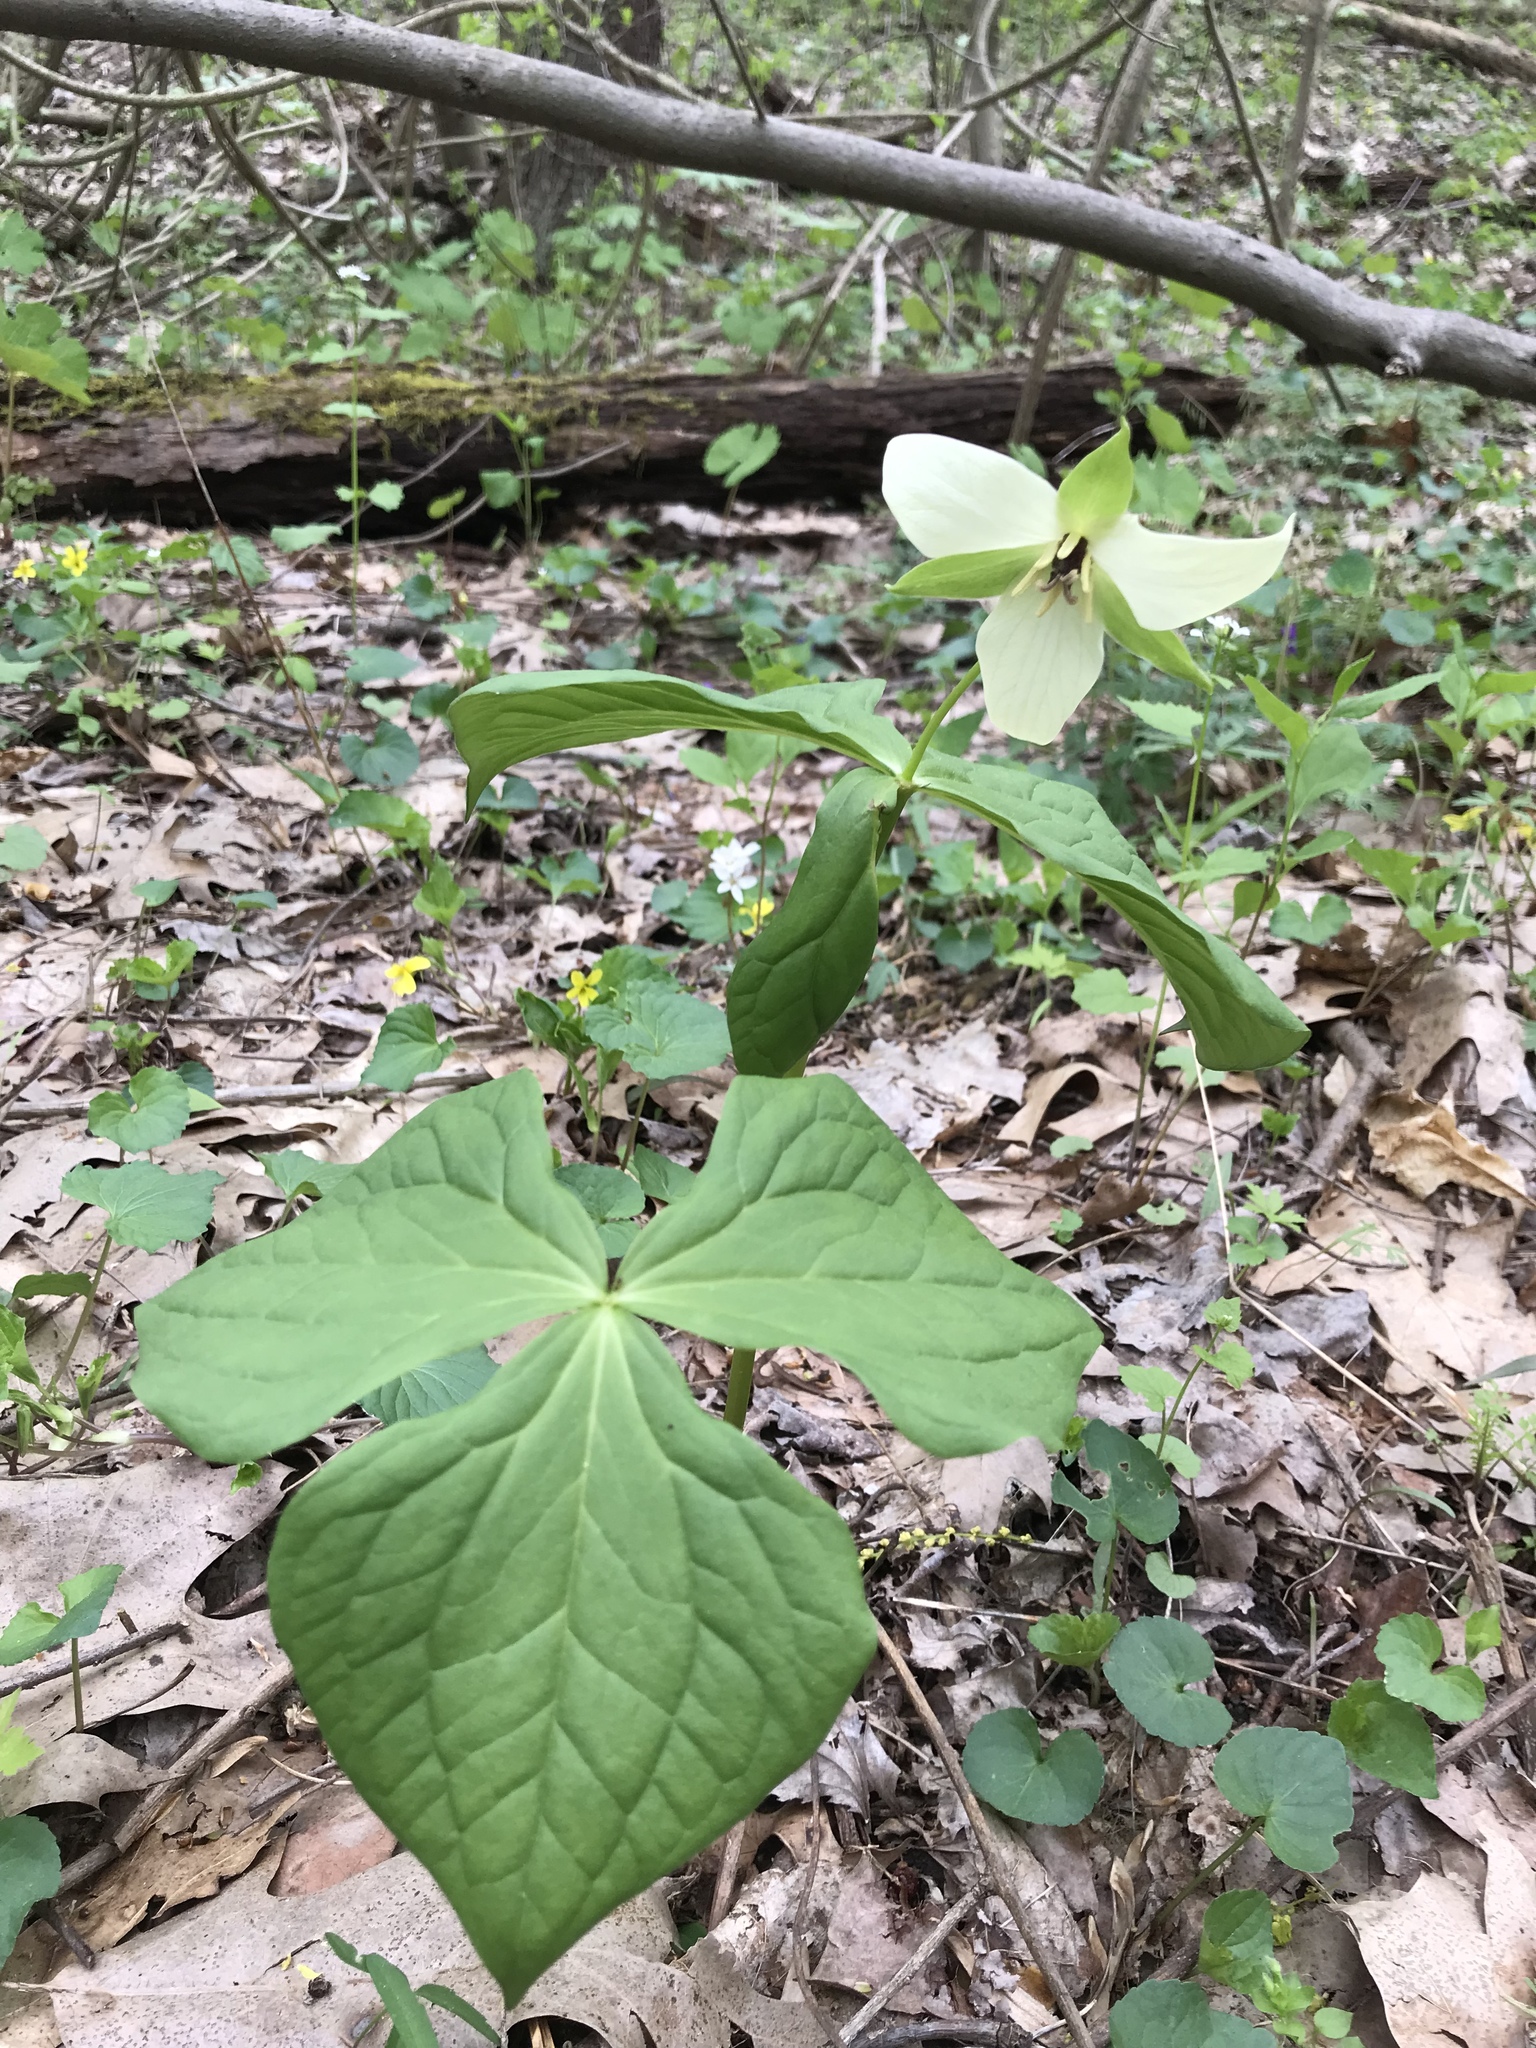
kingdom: Plantae
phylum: Tracheophyta
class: Liliopsida
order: Liliales
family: Melanthiaceae
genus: Trillium
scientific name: Trillium erectum
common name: Purple trillium
